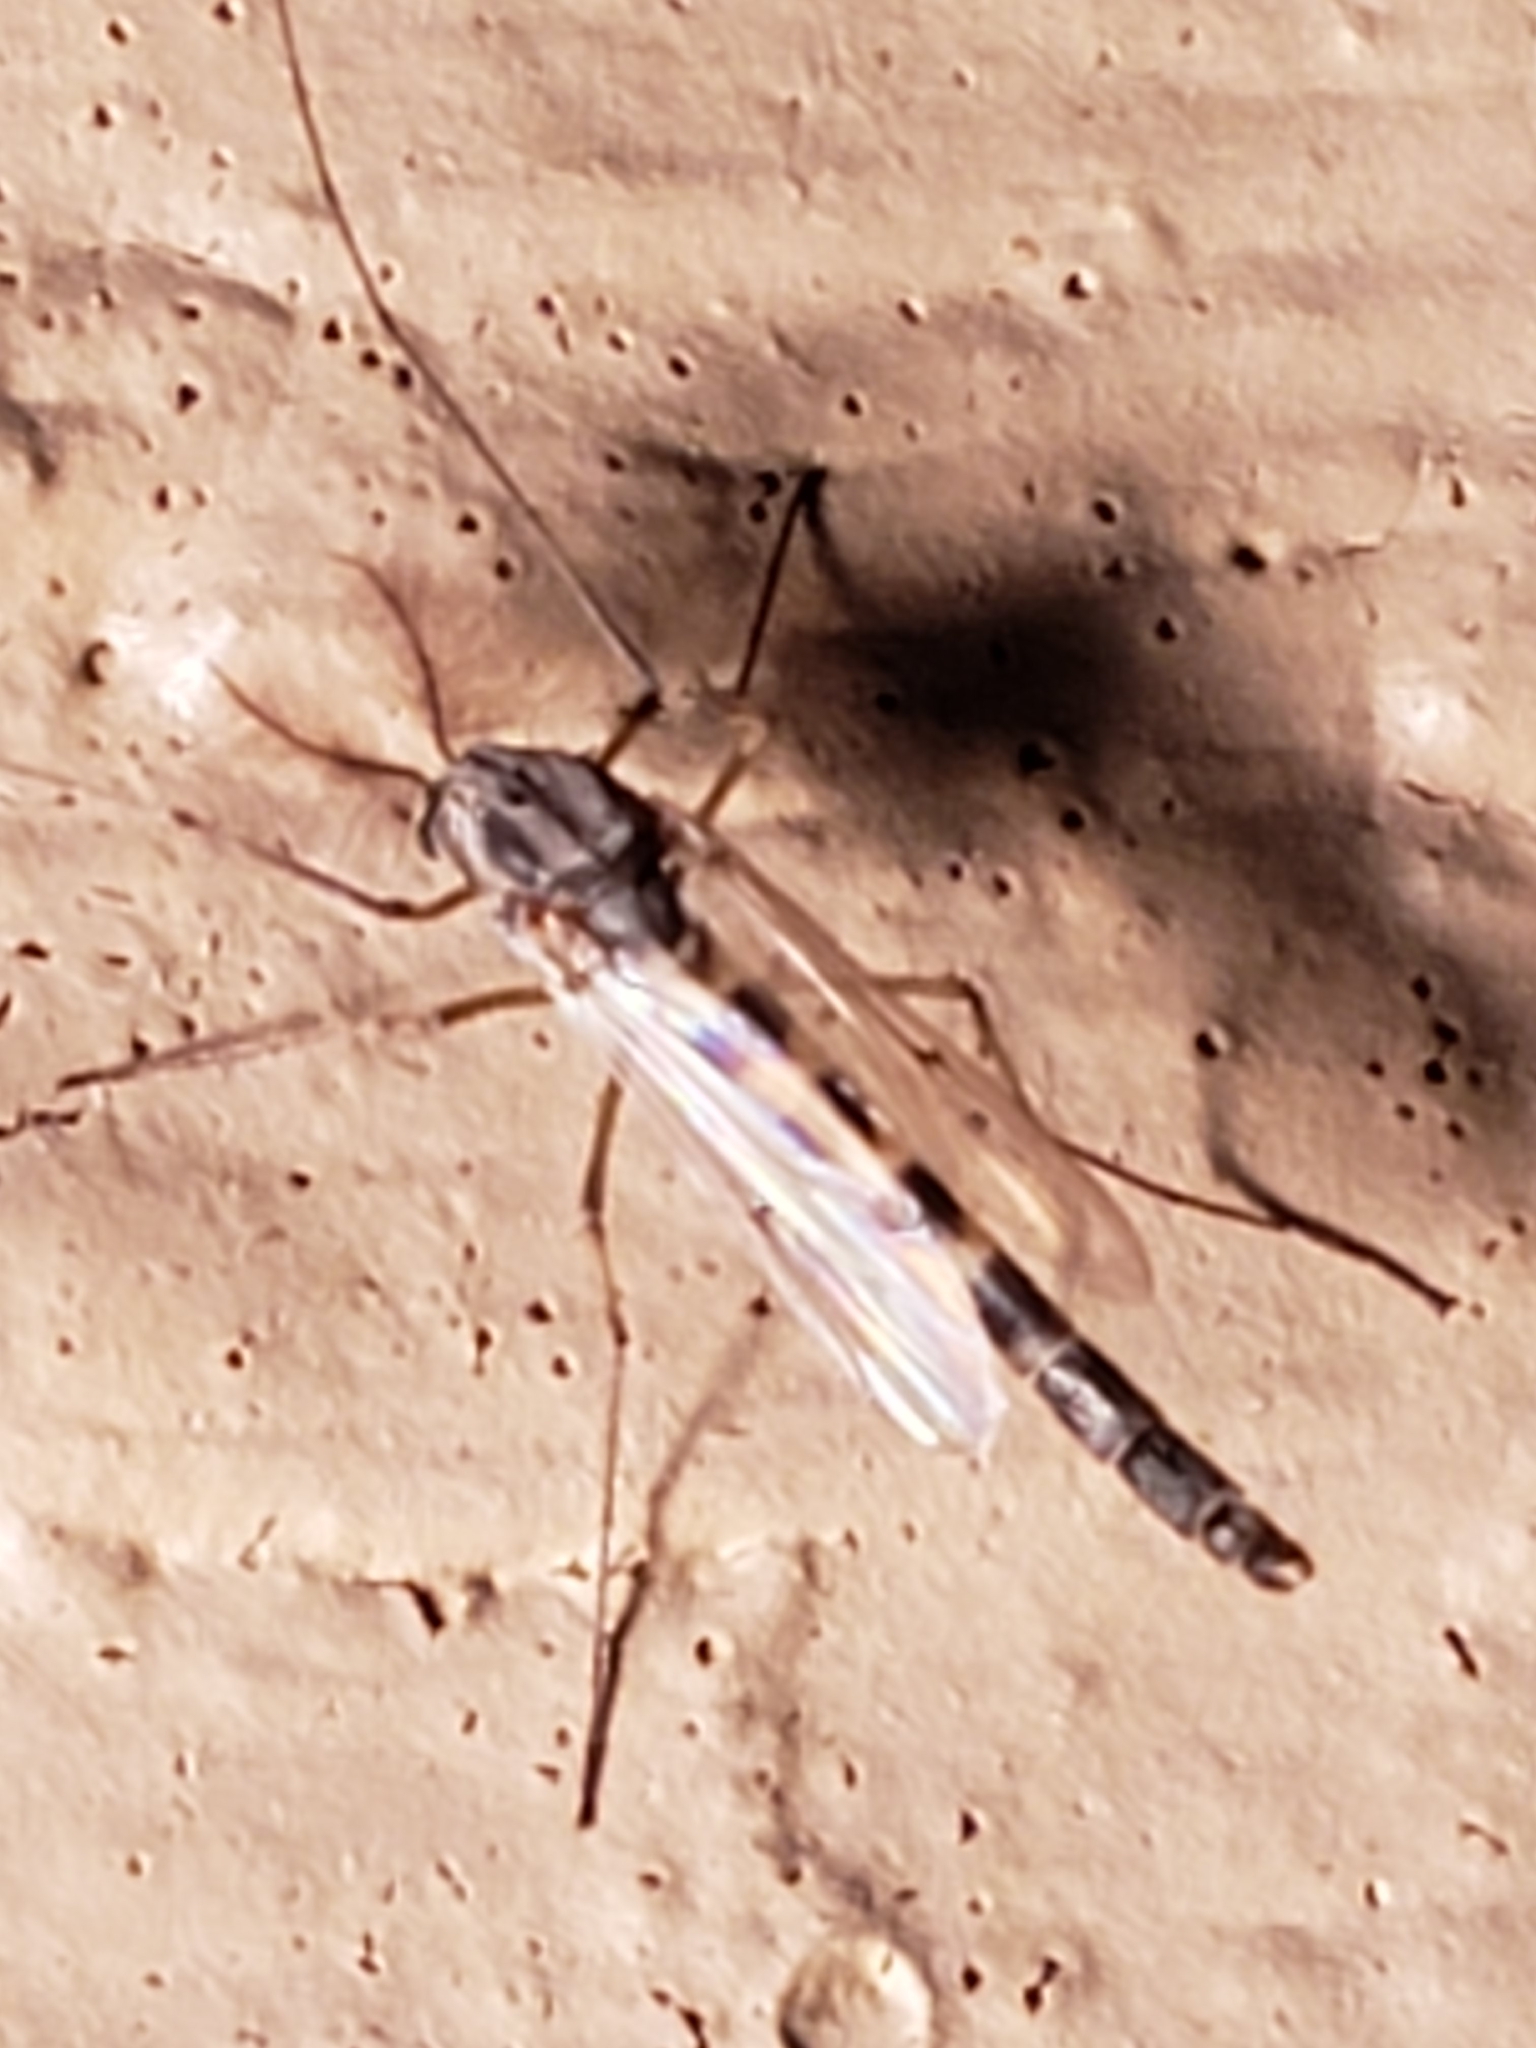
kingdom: Animalia
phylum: Arthropoda
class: Insecta
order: Diptera
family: Chironomidae
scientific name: Chironomidae
